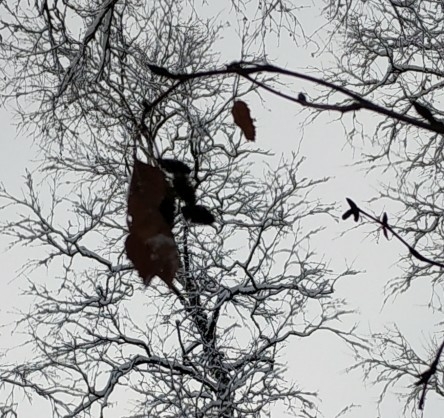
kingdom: Plantae
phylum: Tracheophyta
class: Magnoliopsida
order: Fagales
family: Betulaceae
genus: Alnus
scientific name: Alnus alnobetula
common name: Green alder
